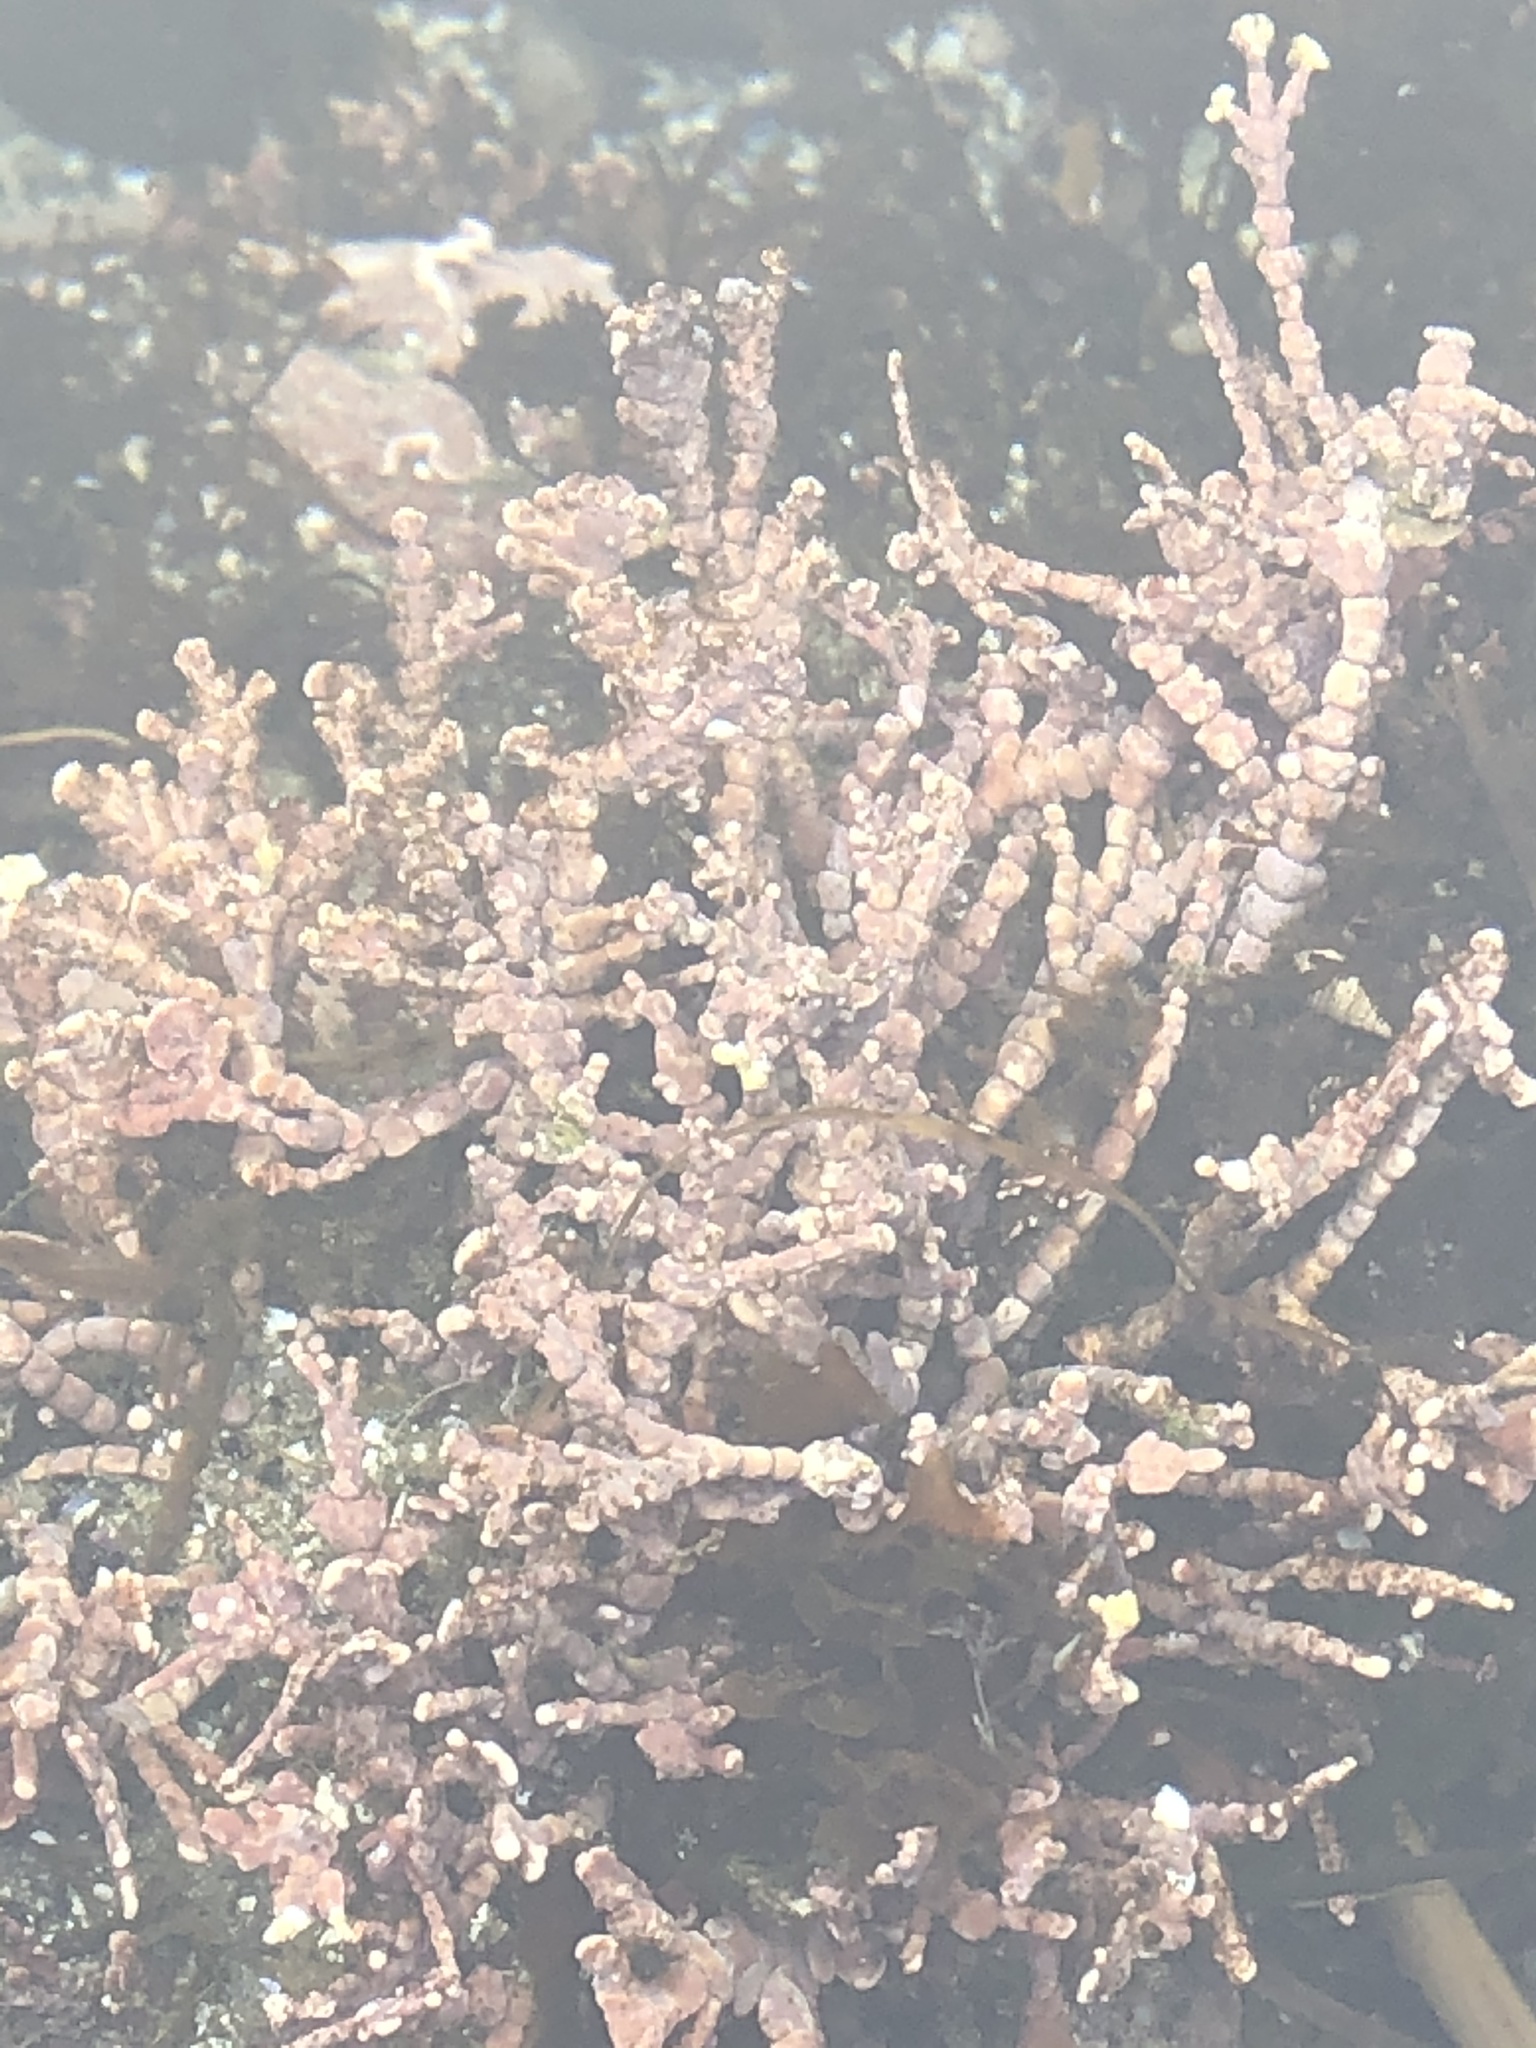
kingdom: Plantae
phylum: Rhodophyta
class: Florideophyceae
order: Corallinales
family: Corallinaceae
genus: Calliarthron
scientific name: Calliarthron tuberculosum
